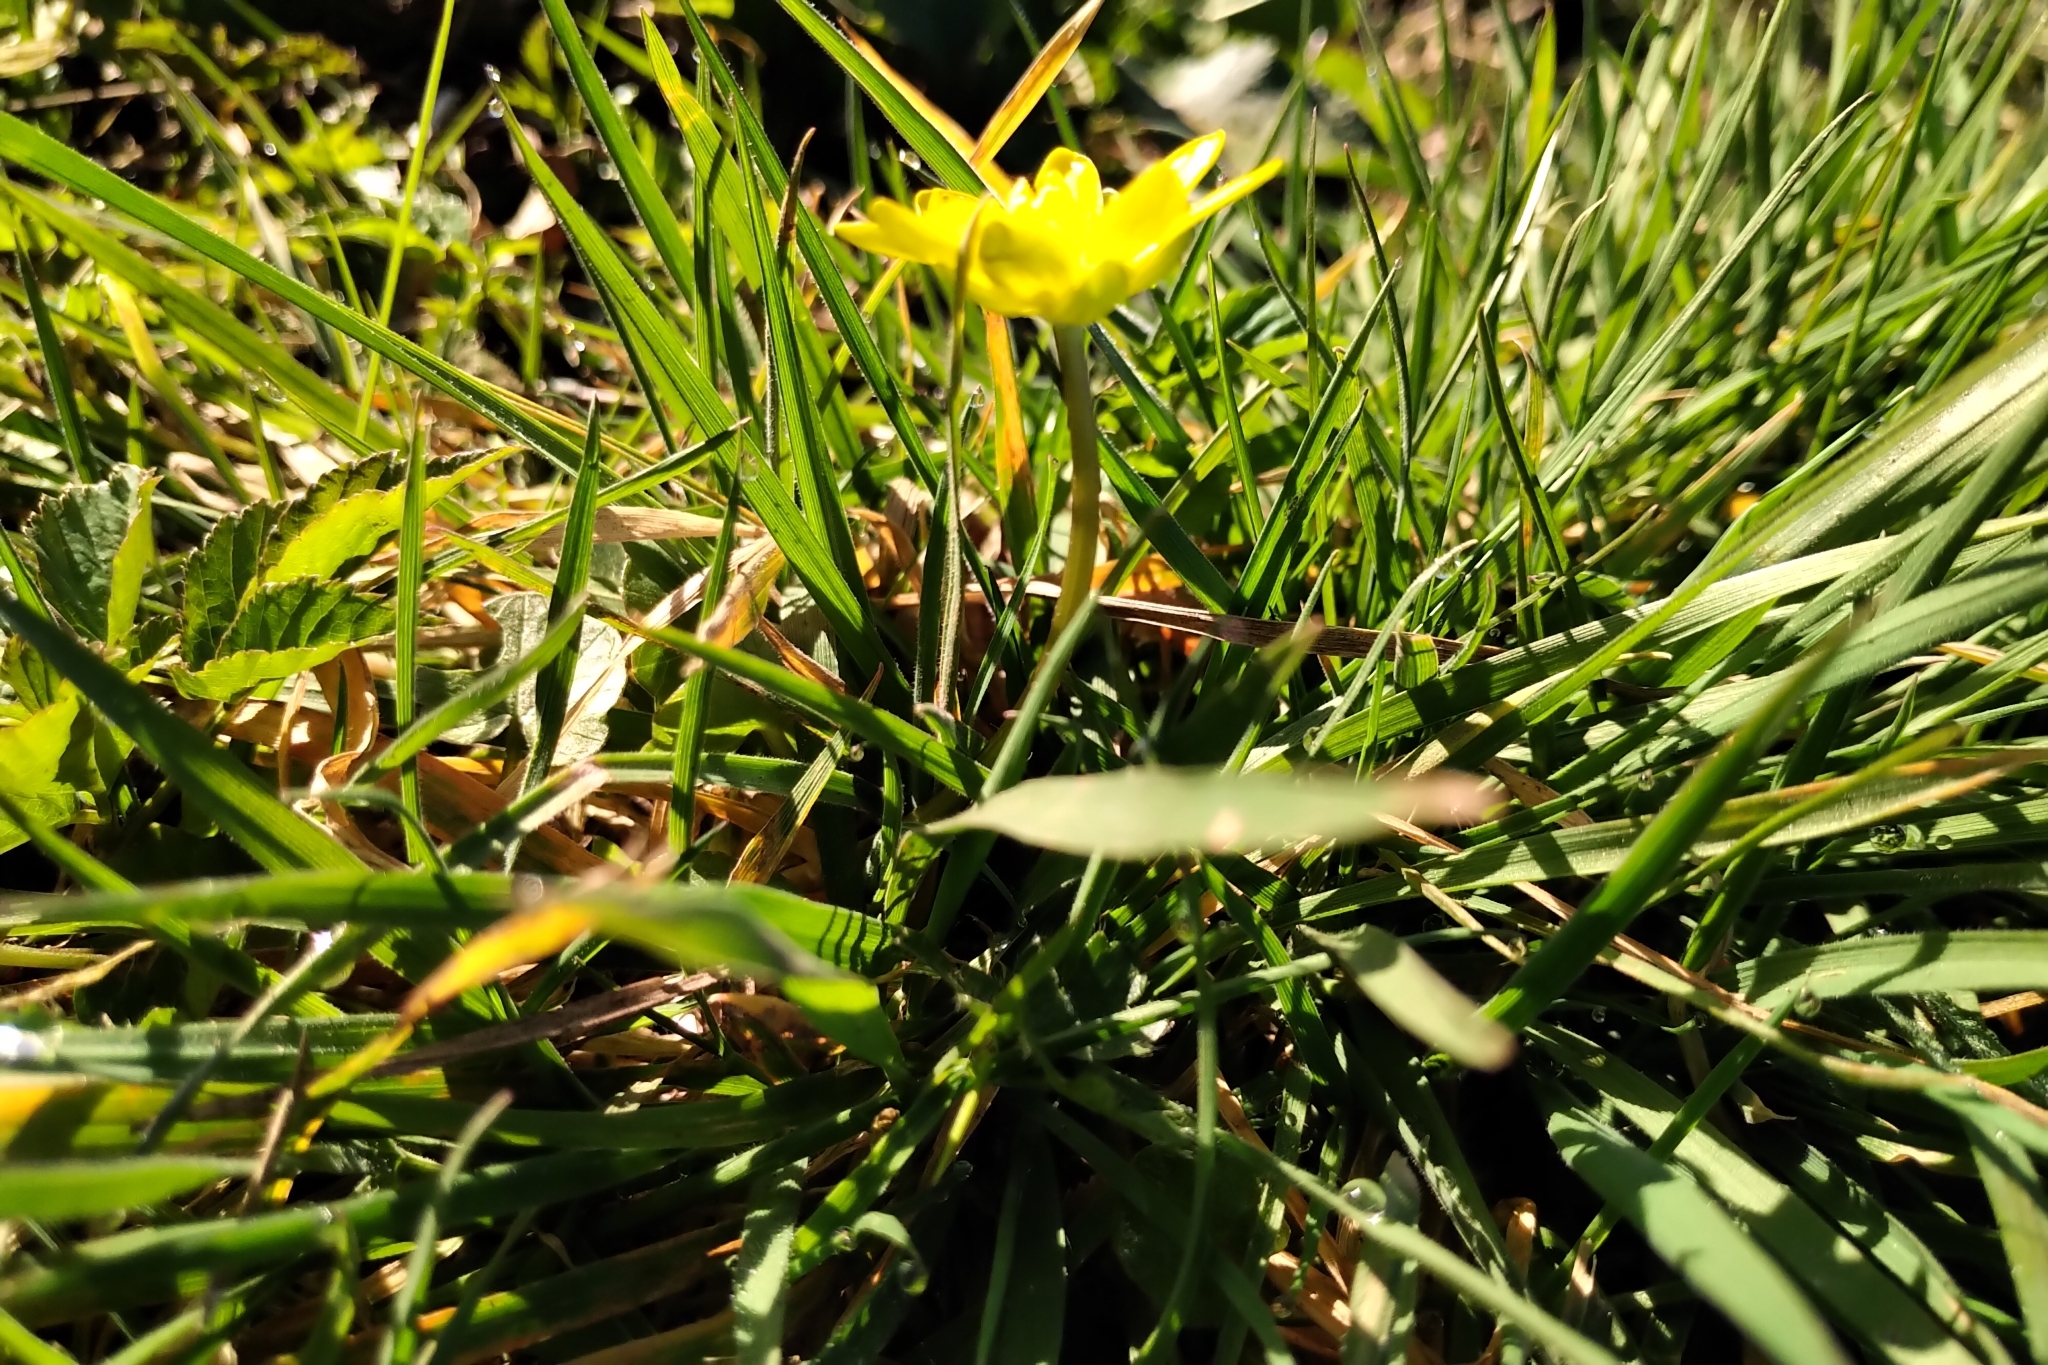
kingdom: Plantae
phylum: Tracheophyta
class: Magnoliopsida
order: Ranunculales
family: Ranunculaceae
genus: Ficaria
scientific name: Ficaria verna
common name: Lesser celandine
